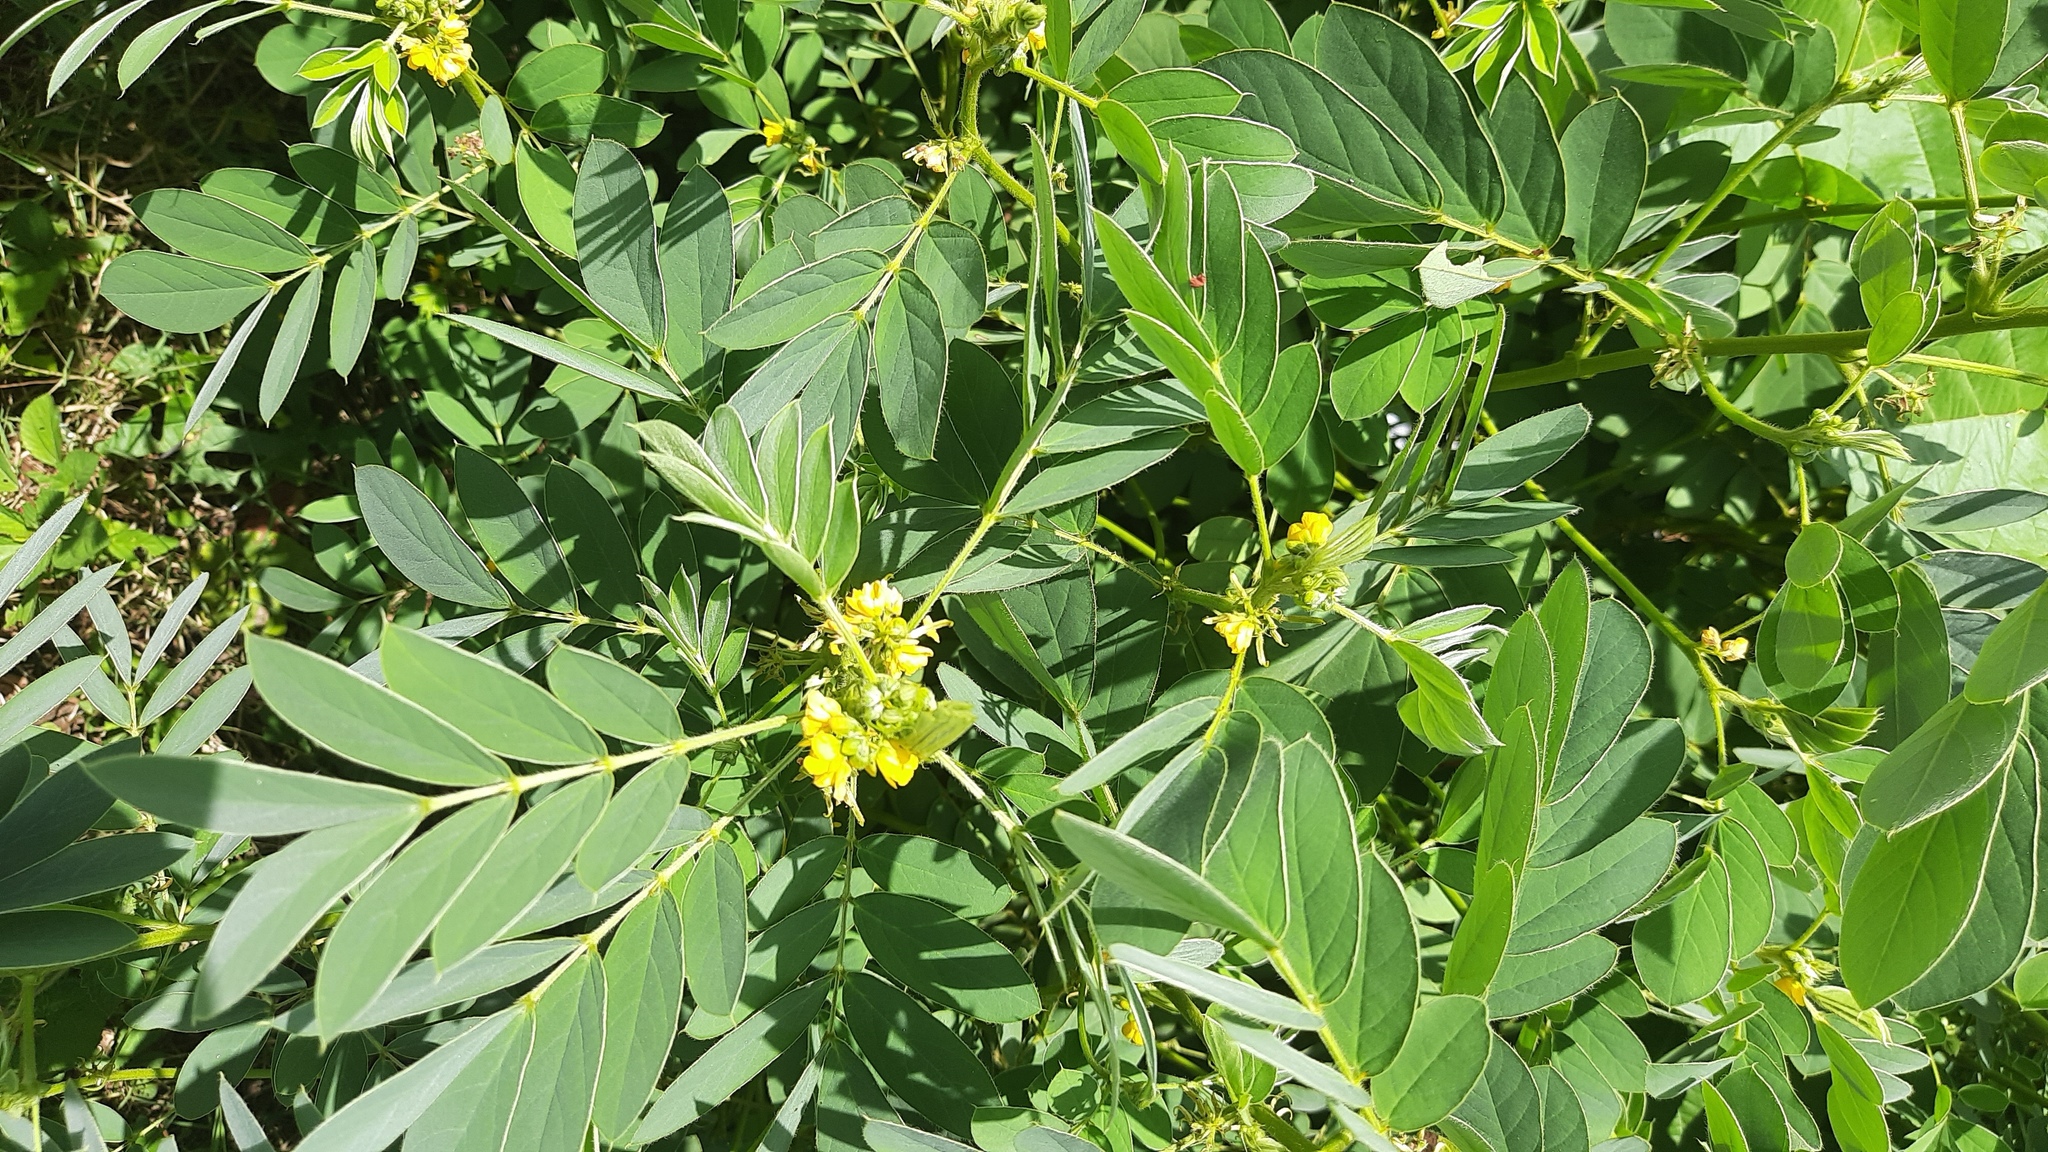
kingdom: Plantae
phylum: Tracheophyta
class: Magnoliopsida
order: Fabales
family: Fabaceae
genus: Senna
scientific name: Senna uniflora
